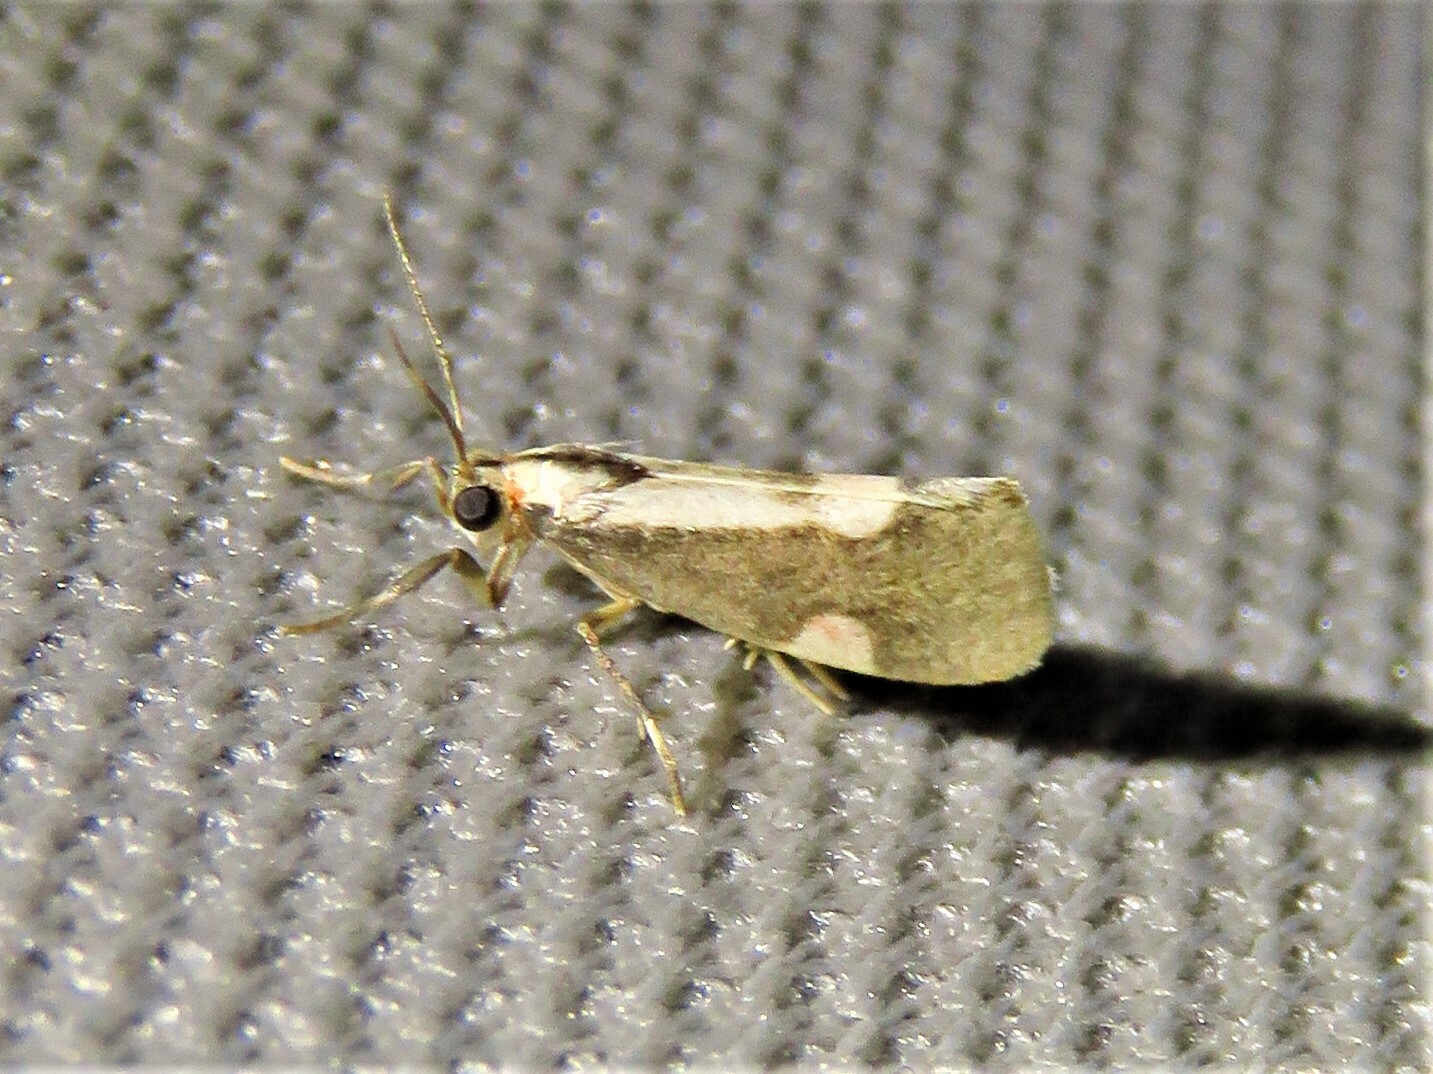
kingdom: Animalia
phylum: Arthropoda
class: Insecta
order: Lepidoptera
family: Erebidae
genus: Cisthene
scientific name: Cisthene conjuncta
